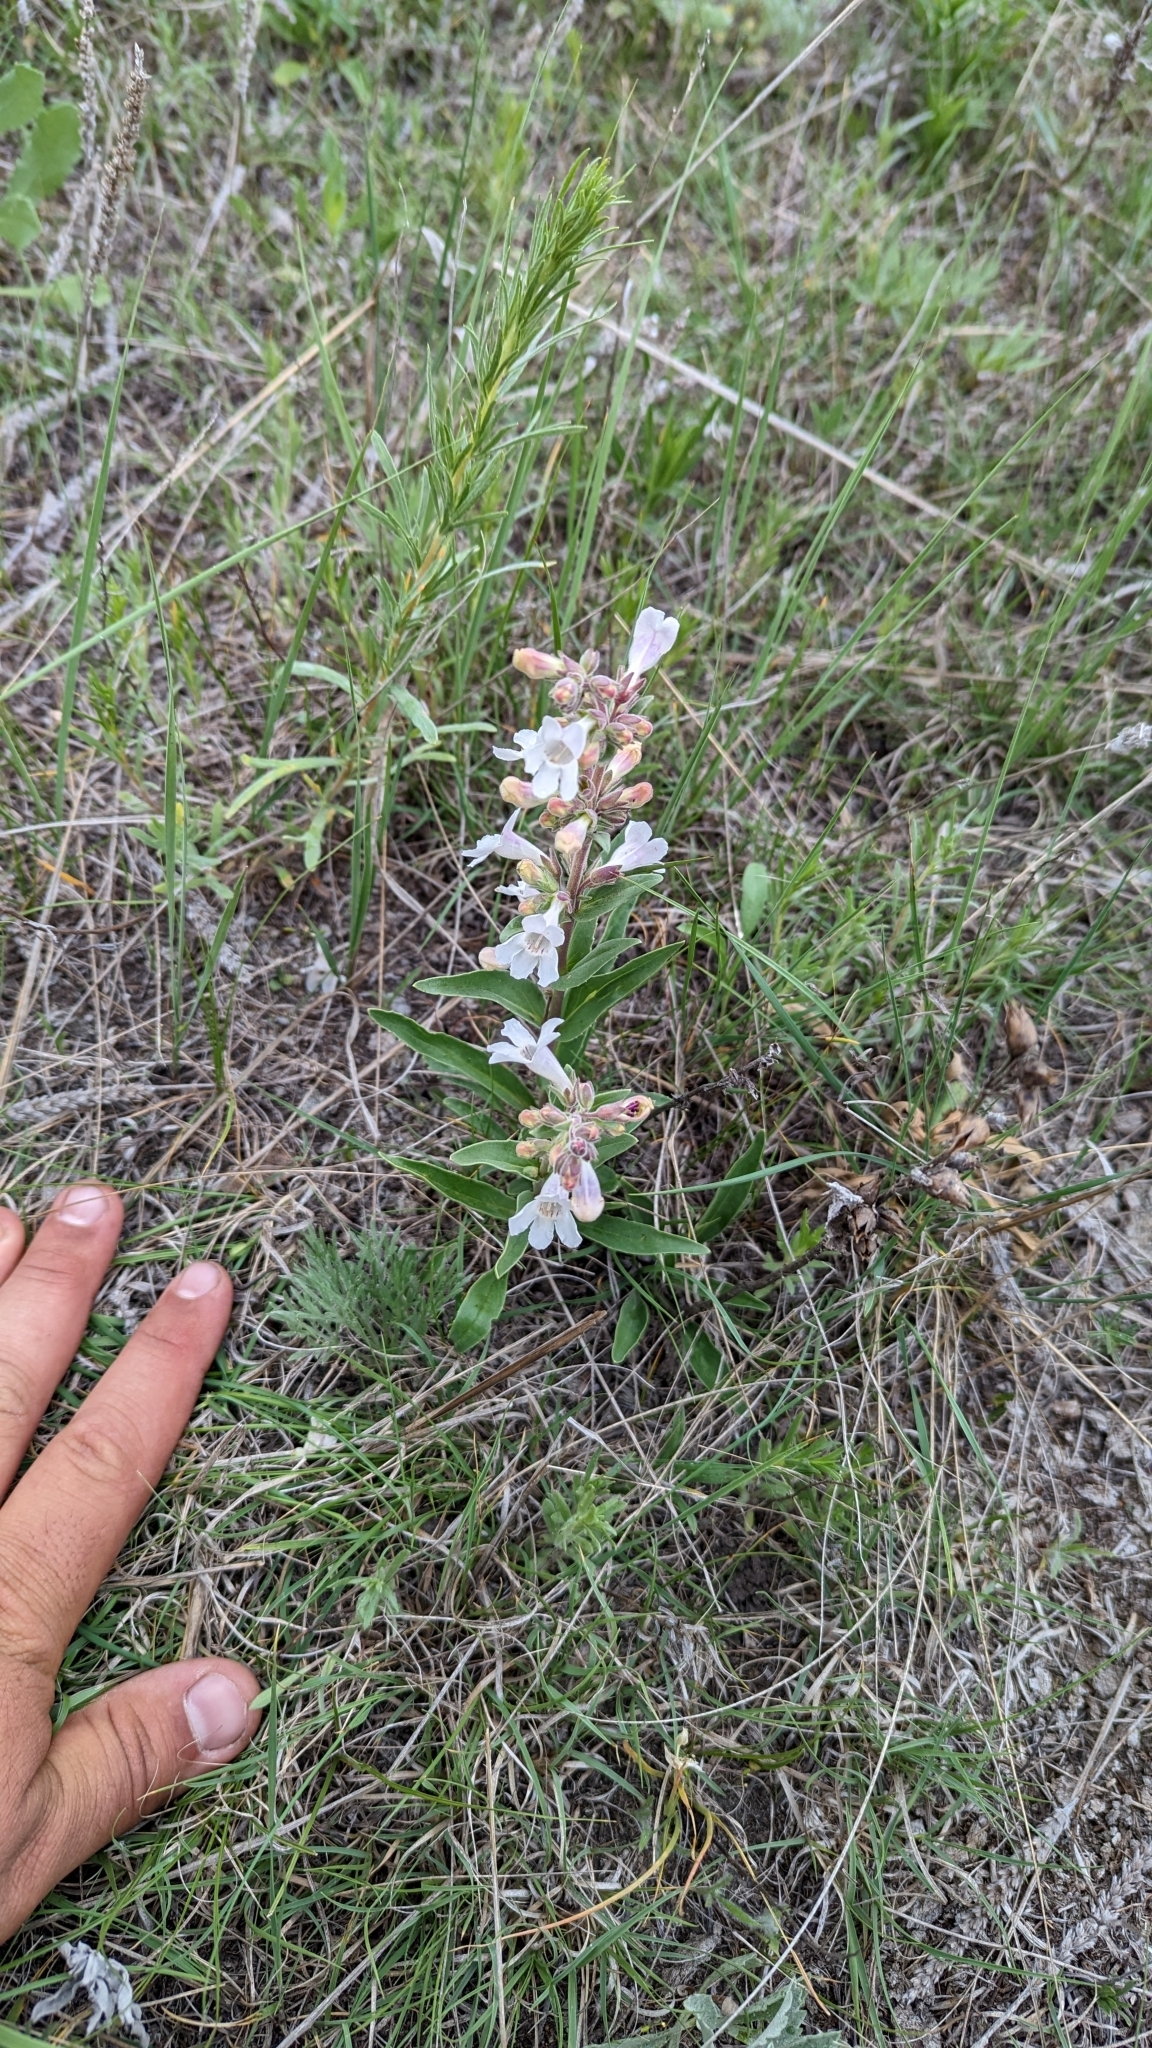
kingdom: Plantae
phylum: Tracheophyta
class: Magnoliopsida
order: Lamiales
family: Plantaginaceae
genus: Penstemon
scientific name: Penstemon albidus
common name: White beardtongue
